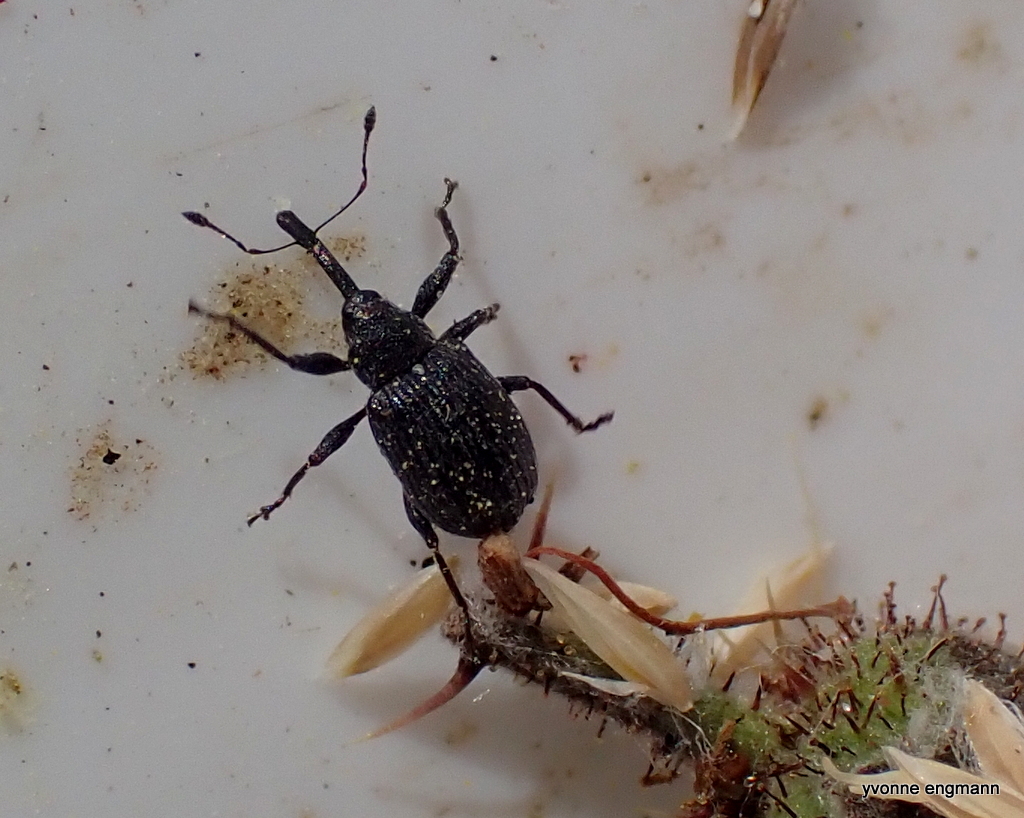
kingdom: Animalia
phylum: Arthropoda
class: Insecta
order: Coleoptera
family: Curculionidae
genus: Anthonomus
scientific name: Anthonomus rubi
